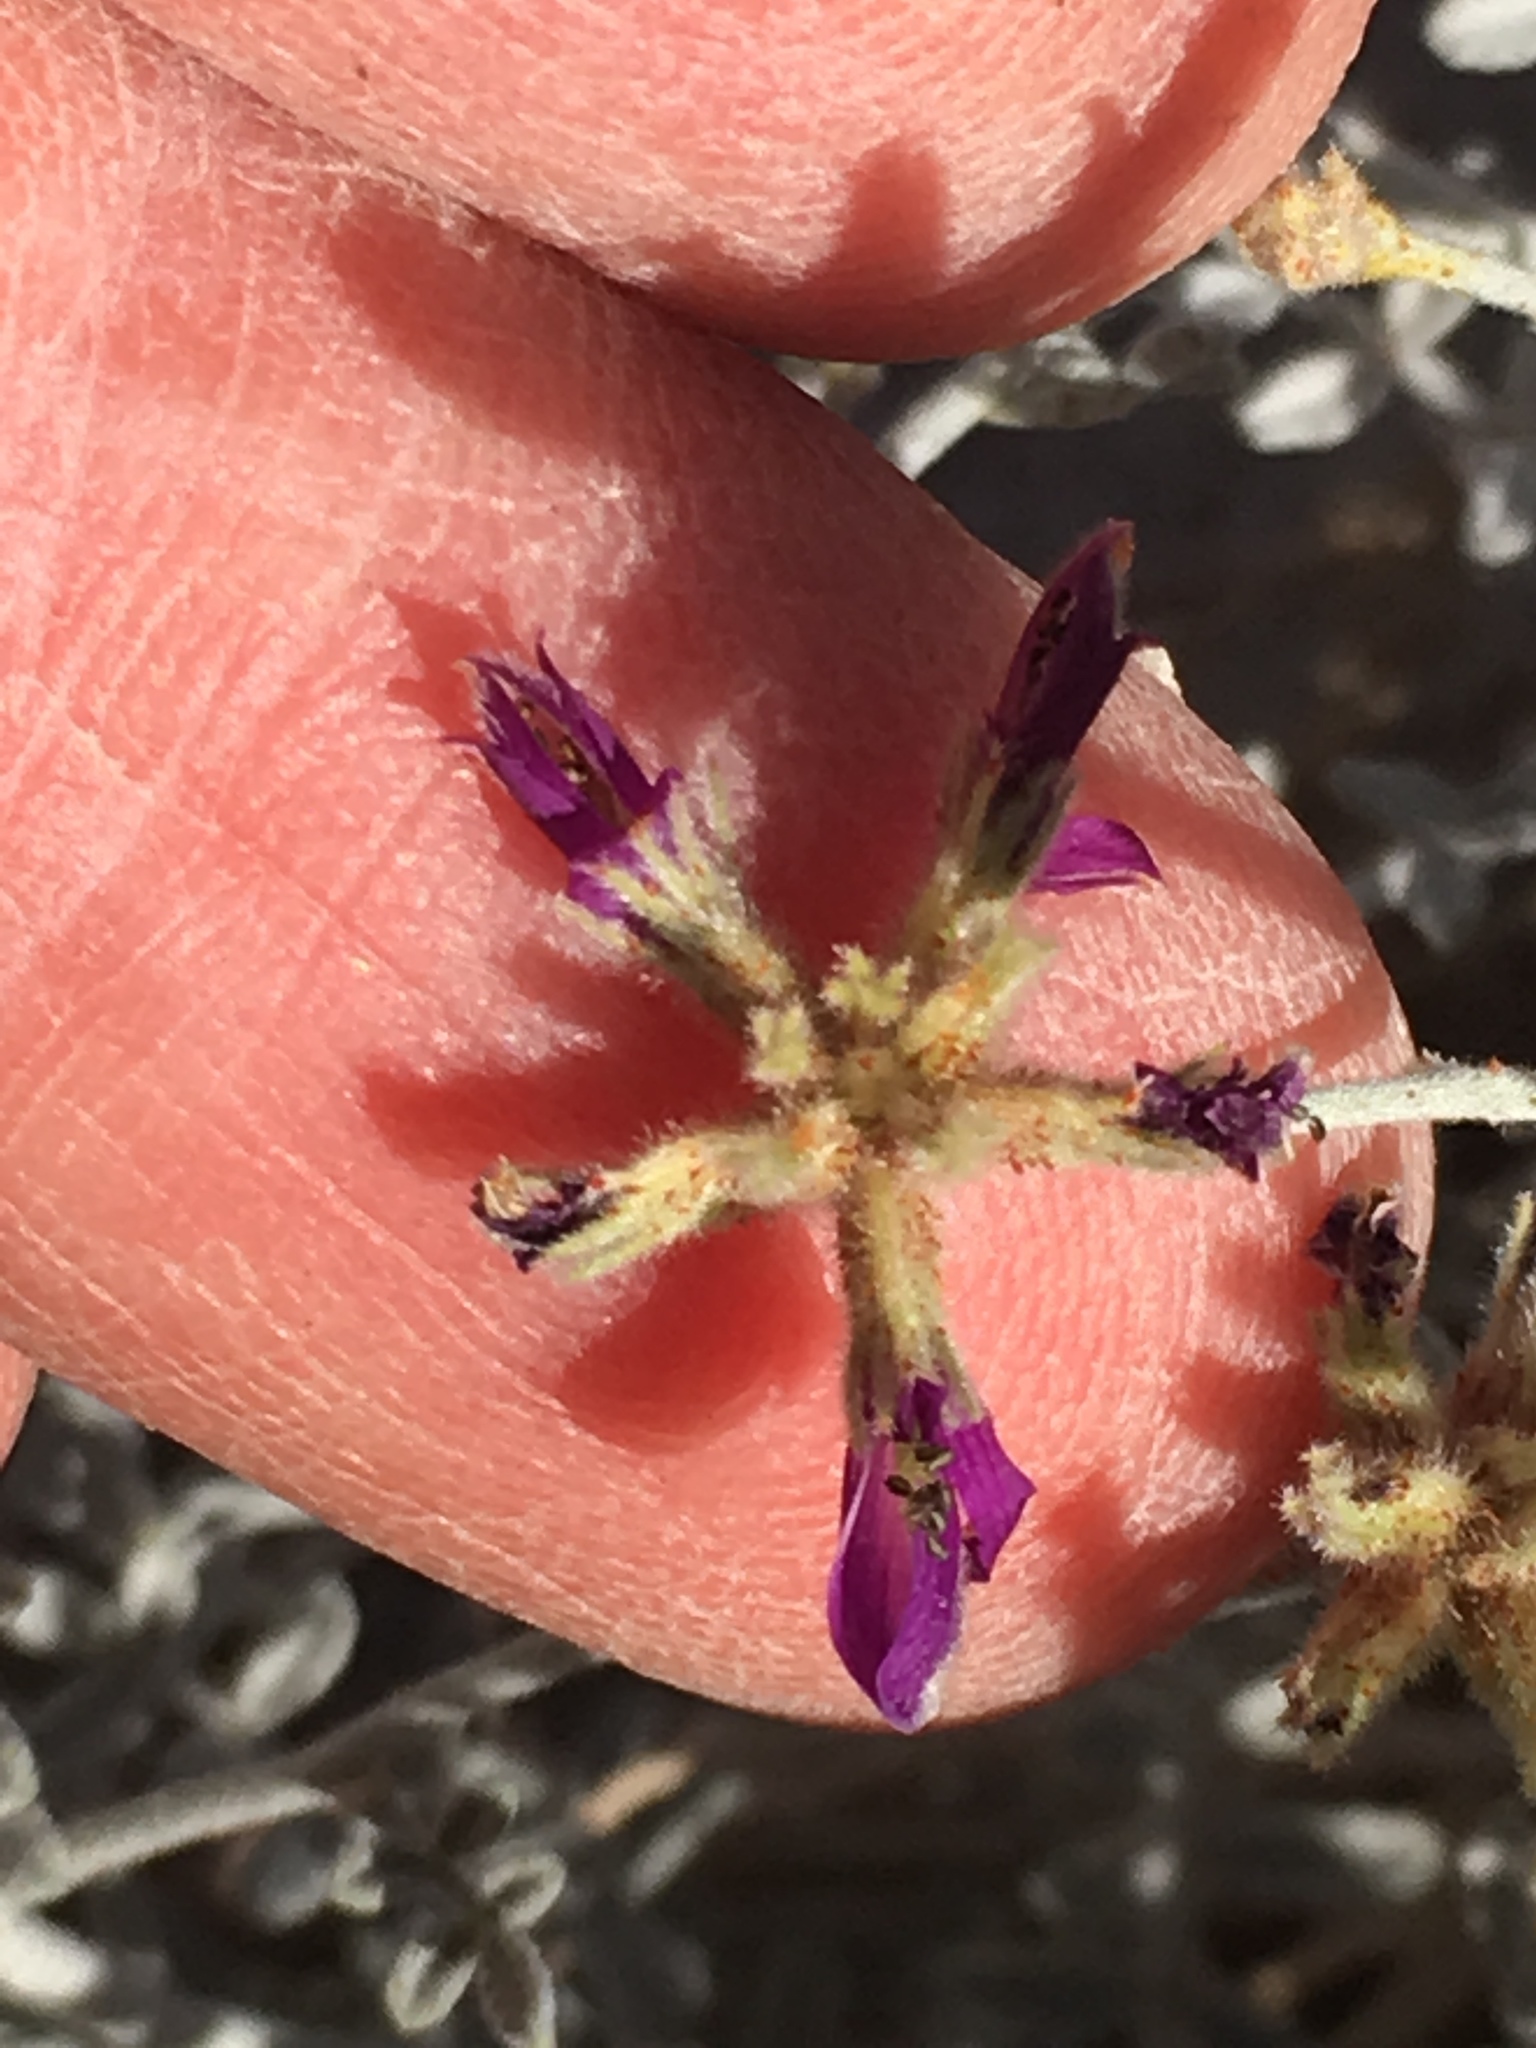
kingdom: Plantae
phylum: Tracheophyta
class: Magnoliopsida
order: Fabales
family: Fabaceae
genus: Psorothamnus
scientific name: Psorothamnus emoryi
